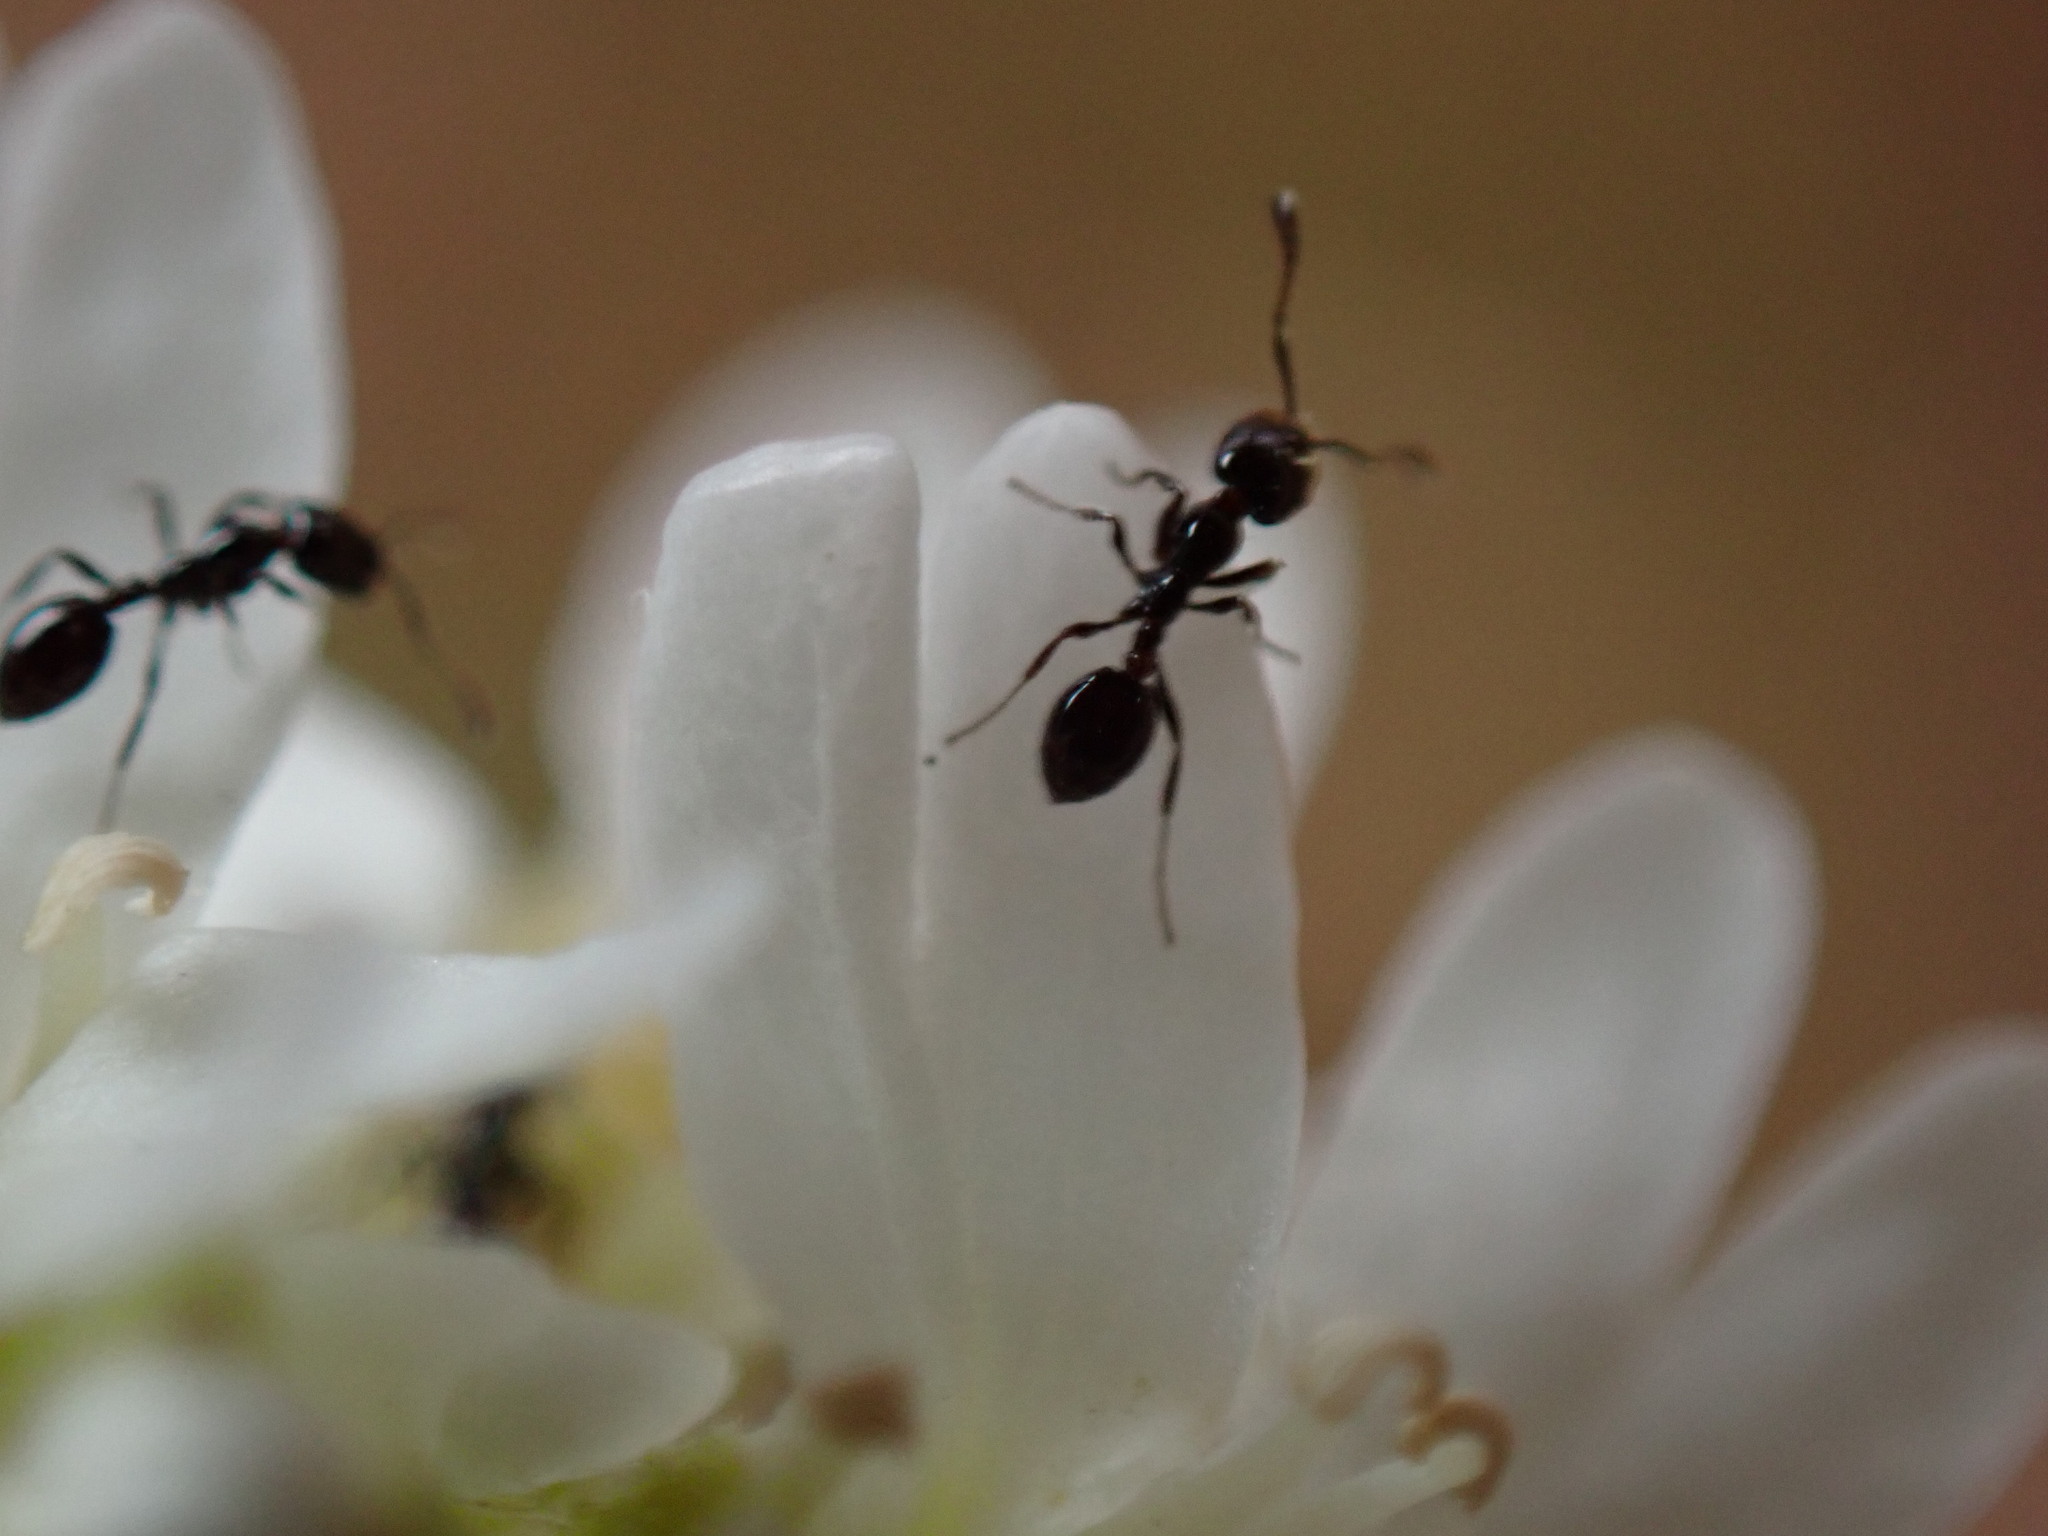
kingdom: Animalia
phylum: Arthropoda
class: Insecta
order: Hymenoptera
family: Formicidae
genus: Monomorium
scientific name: Monomorium
